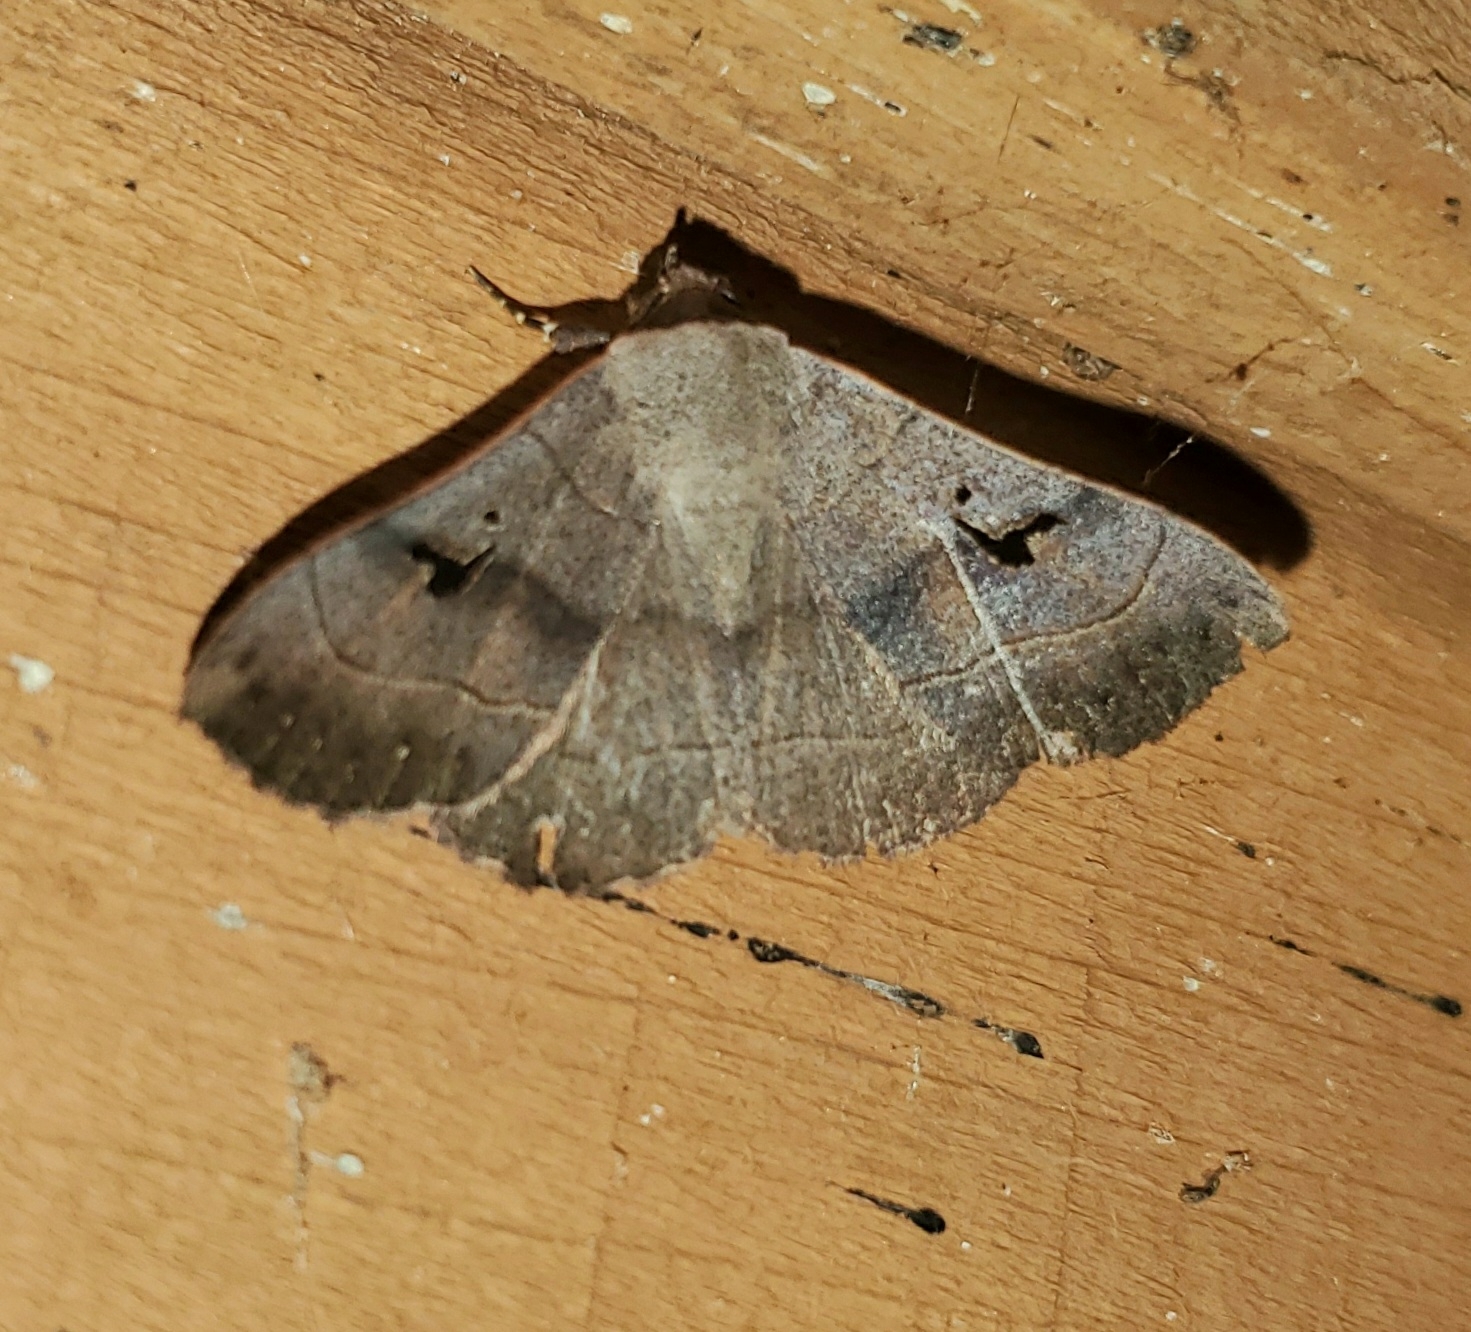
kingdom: Animalia
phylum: Arthropoda
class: Insecta
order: Lepidoptera
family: Erebidae
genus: Panopoda
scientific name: Panopoda carneicosta
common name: Brown panopoda moth
